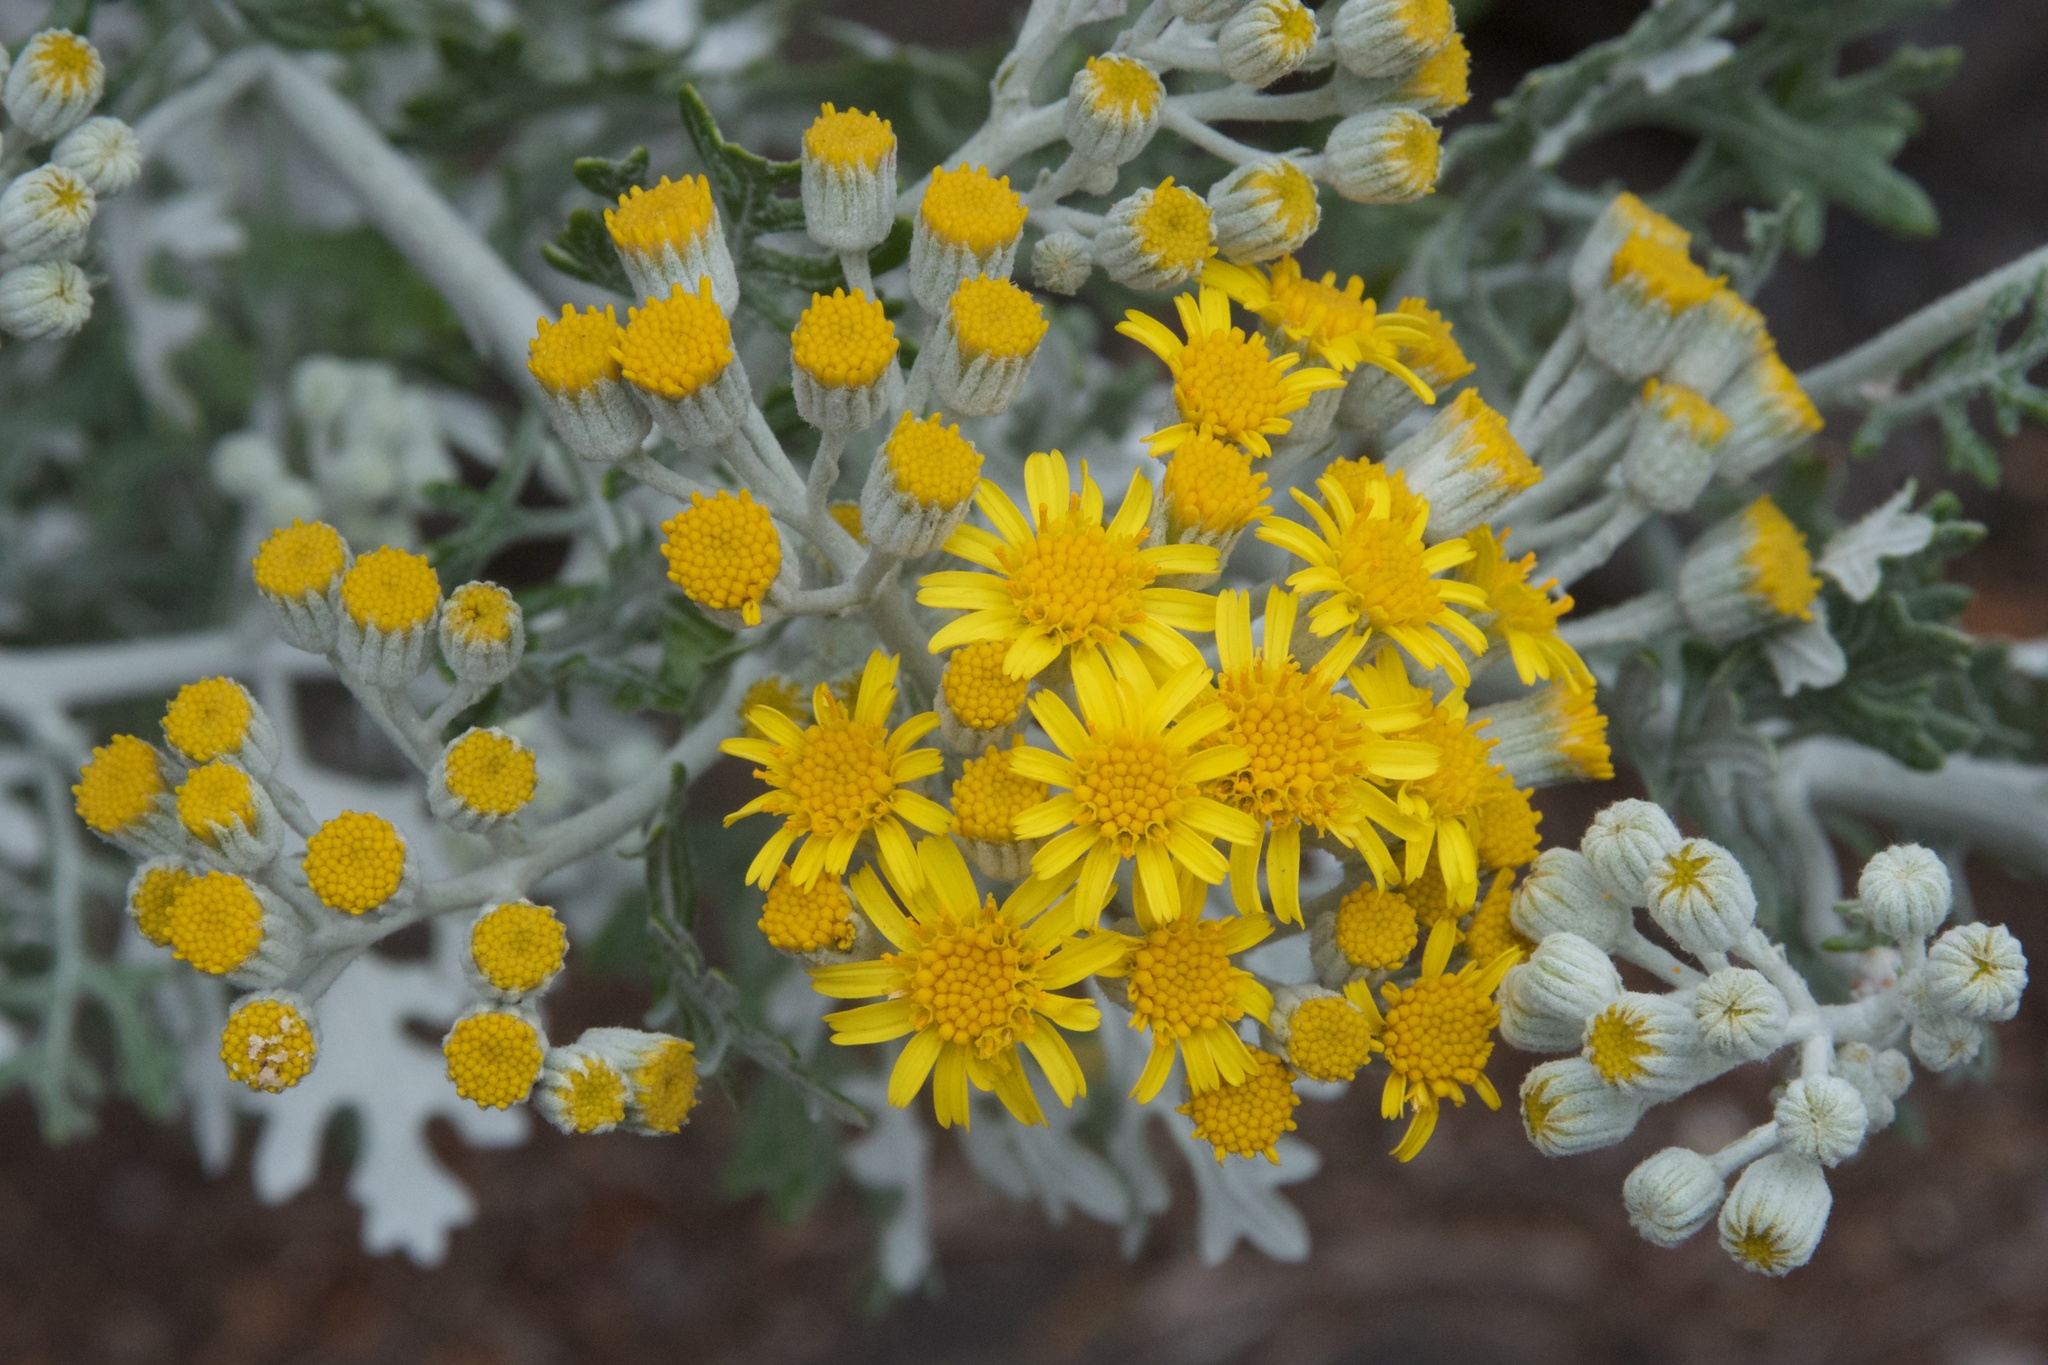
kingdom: Plantae
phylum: Tracheophyta
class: Magnoliopsida
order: Asterales
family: Asteraceae
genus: Jacobaea
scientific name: Jacobaea maritima
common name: Silver ragwort
